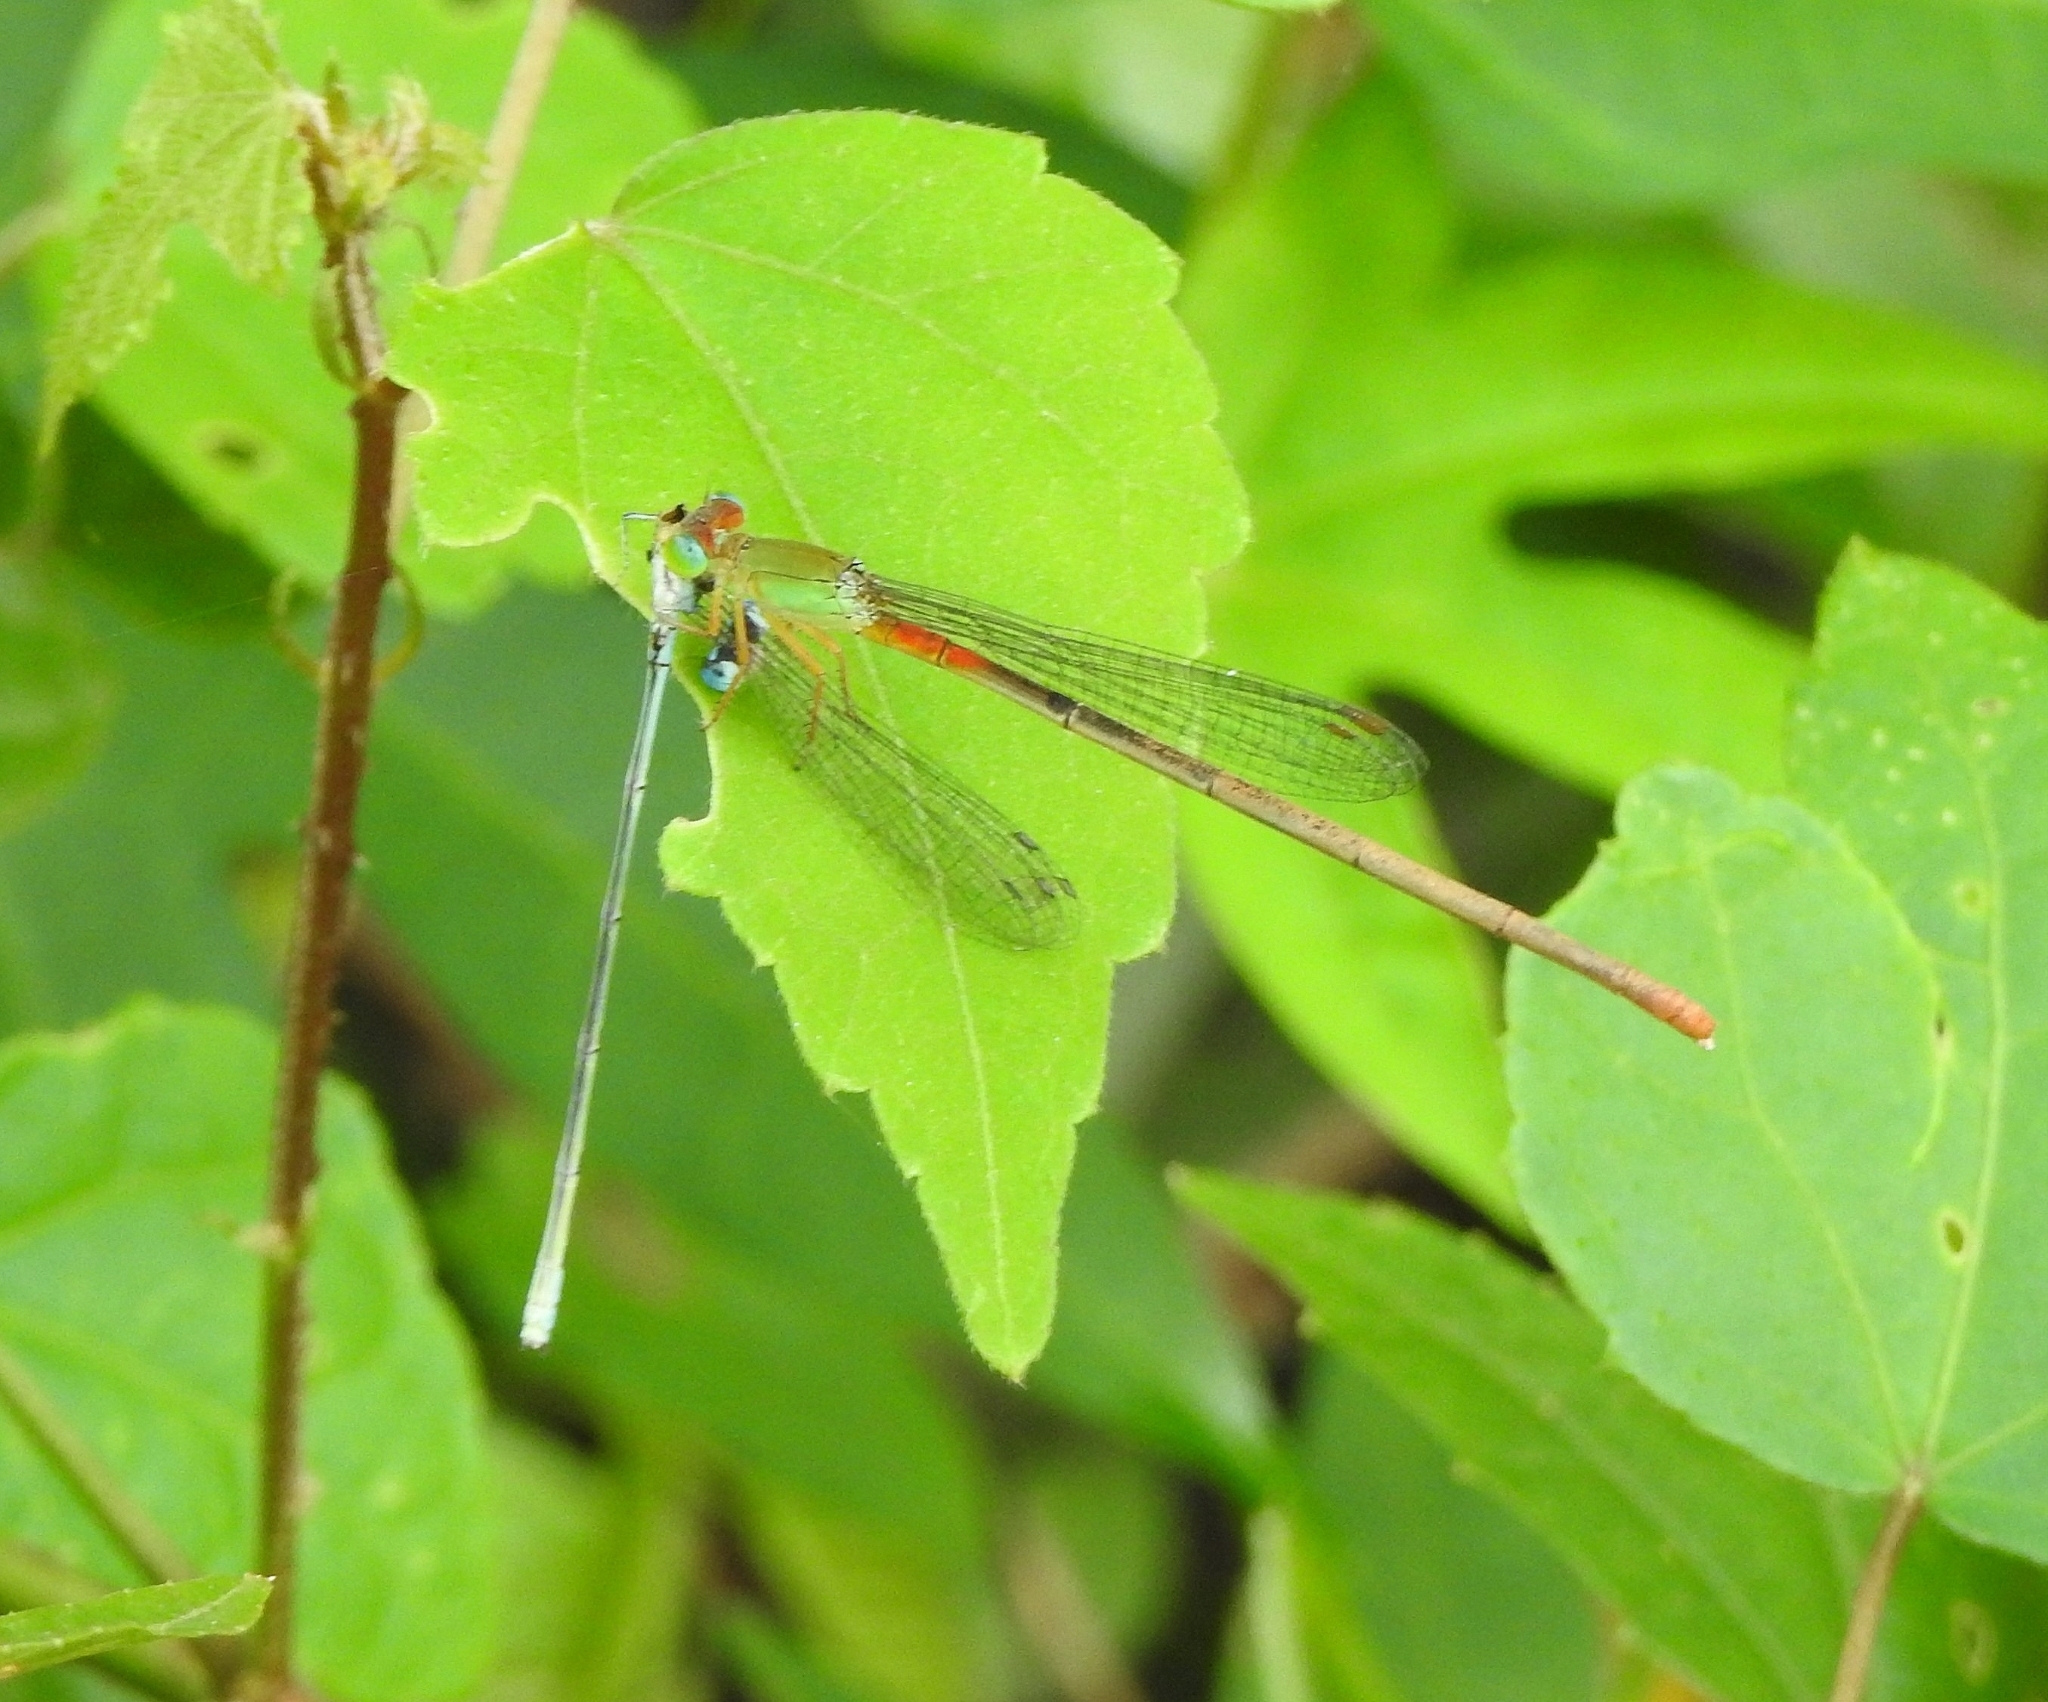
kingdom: Animalia
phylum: Arthropoda
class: Insecta
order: Odonata
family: Coenagrionidae
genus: Ceriagrion
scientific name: Ceriagrion cerinorubellum
